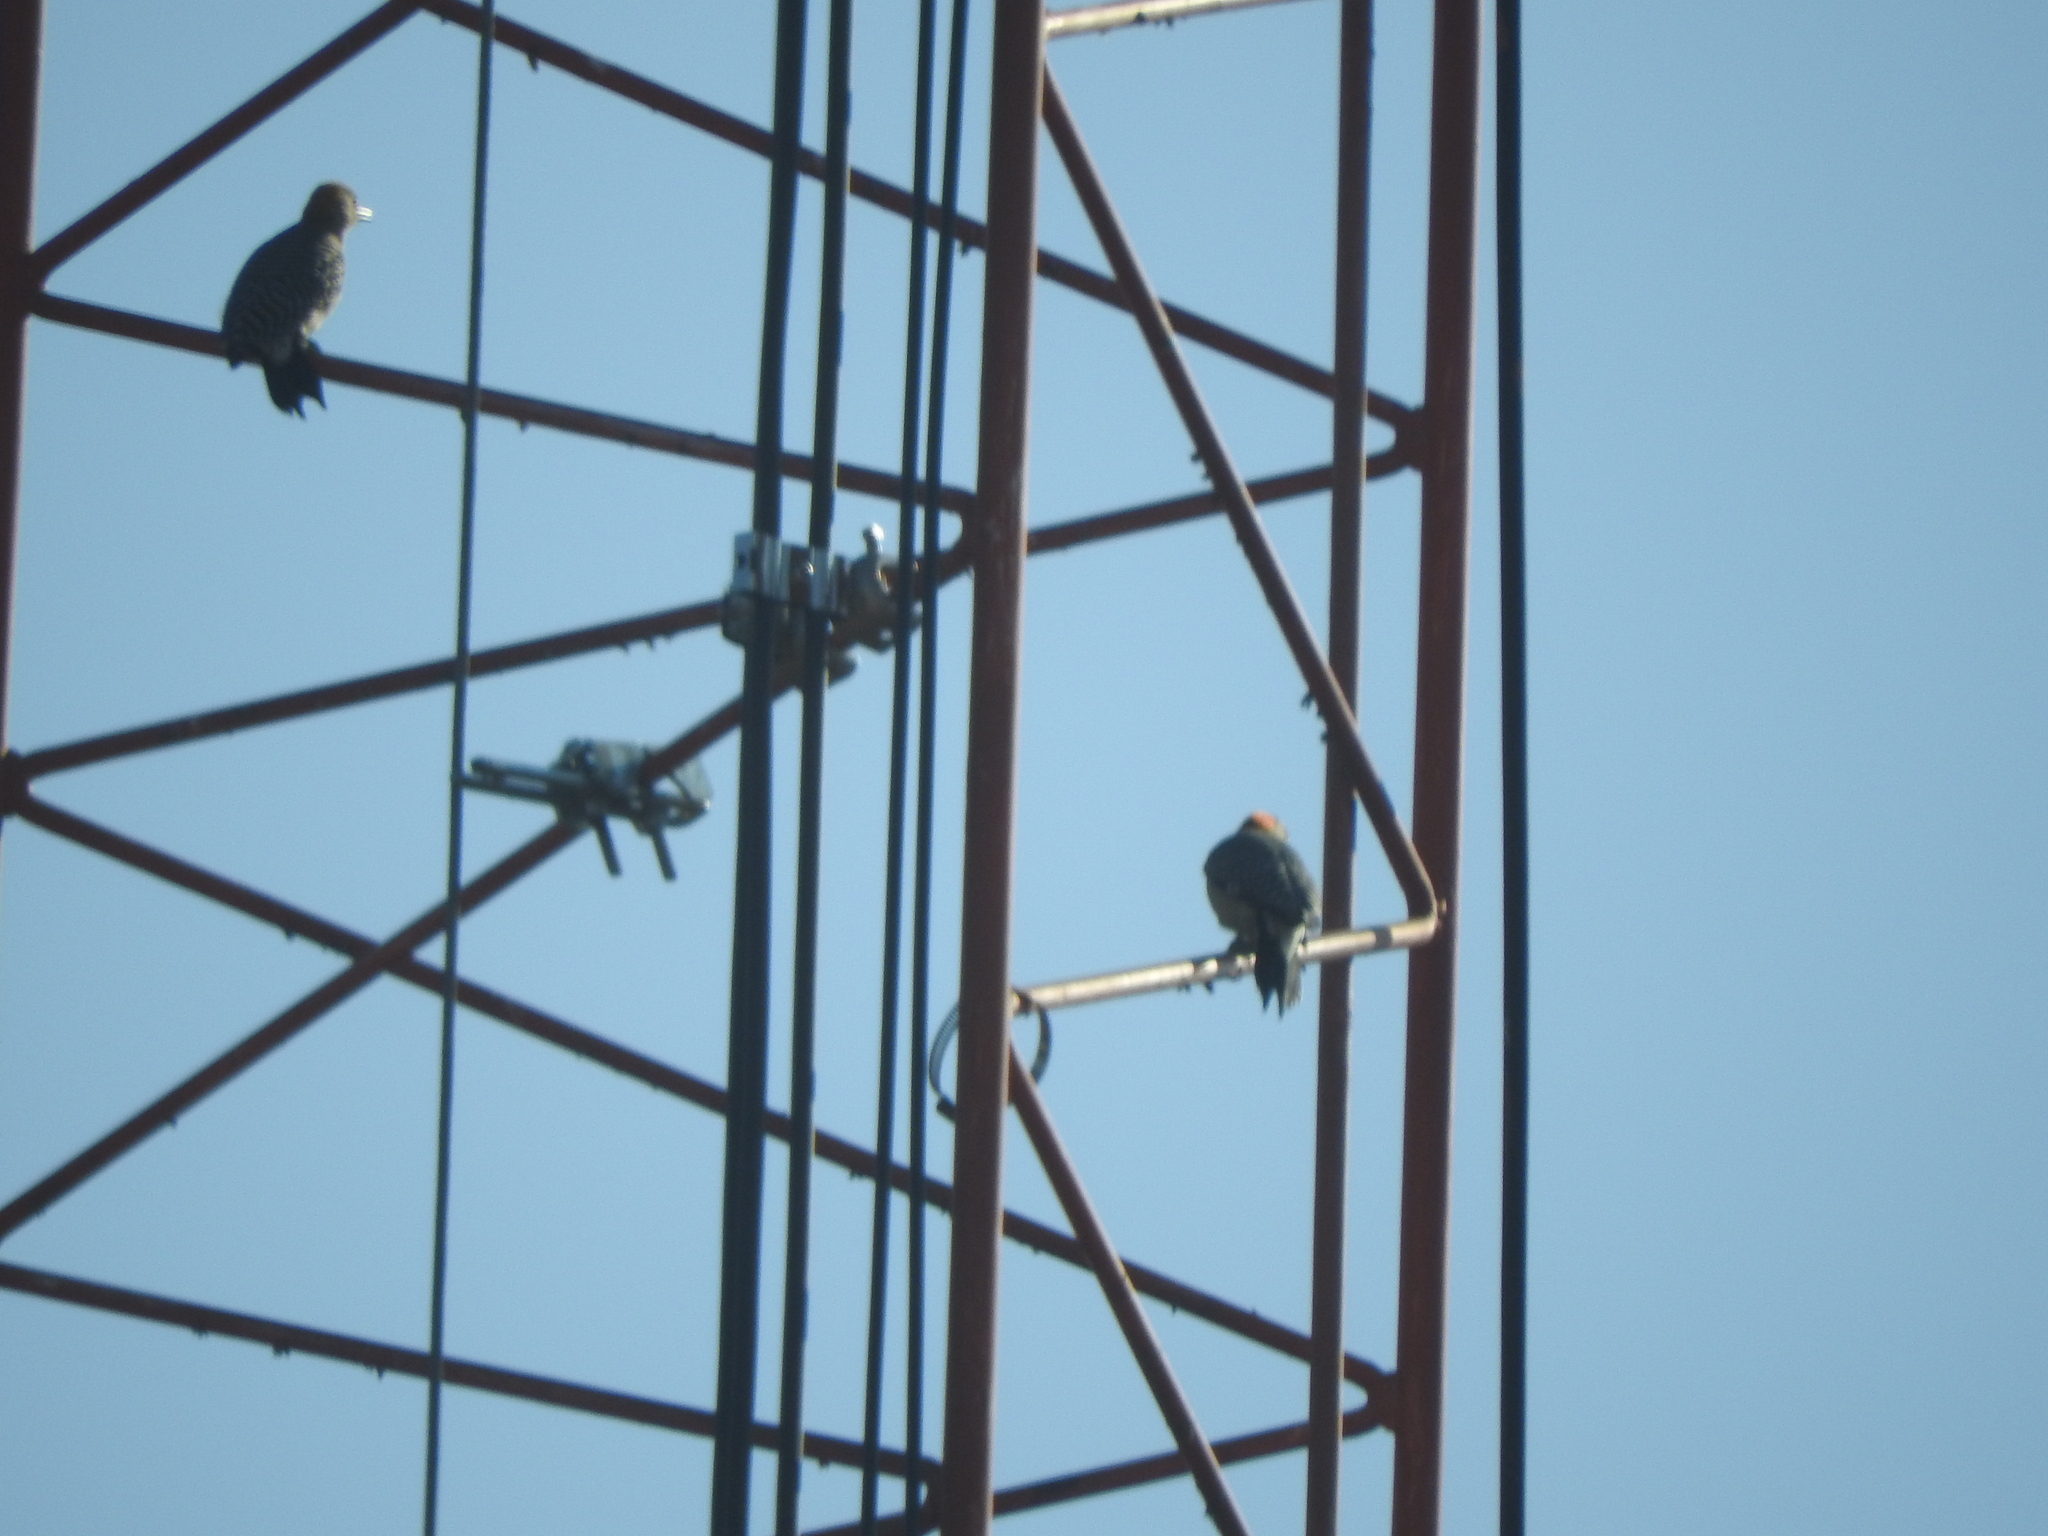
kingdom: Animalia
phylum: Chordata
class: Aves
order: Piciformes
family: Picidae
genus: Melanerpes
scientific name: Melanerpes aurifrons
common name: Golden-fronted woodpecker
